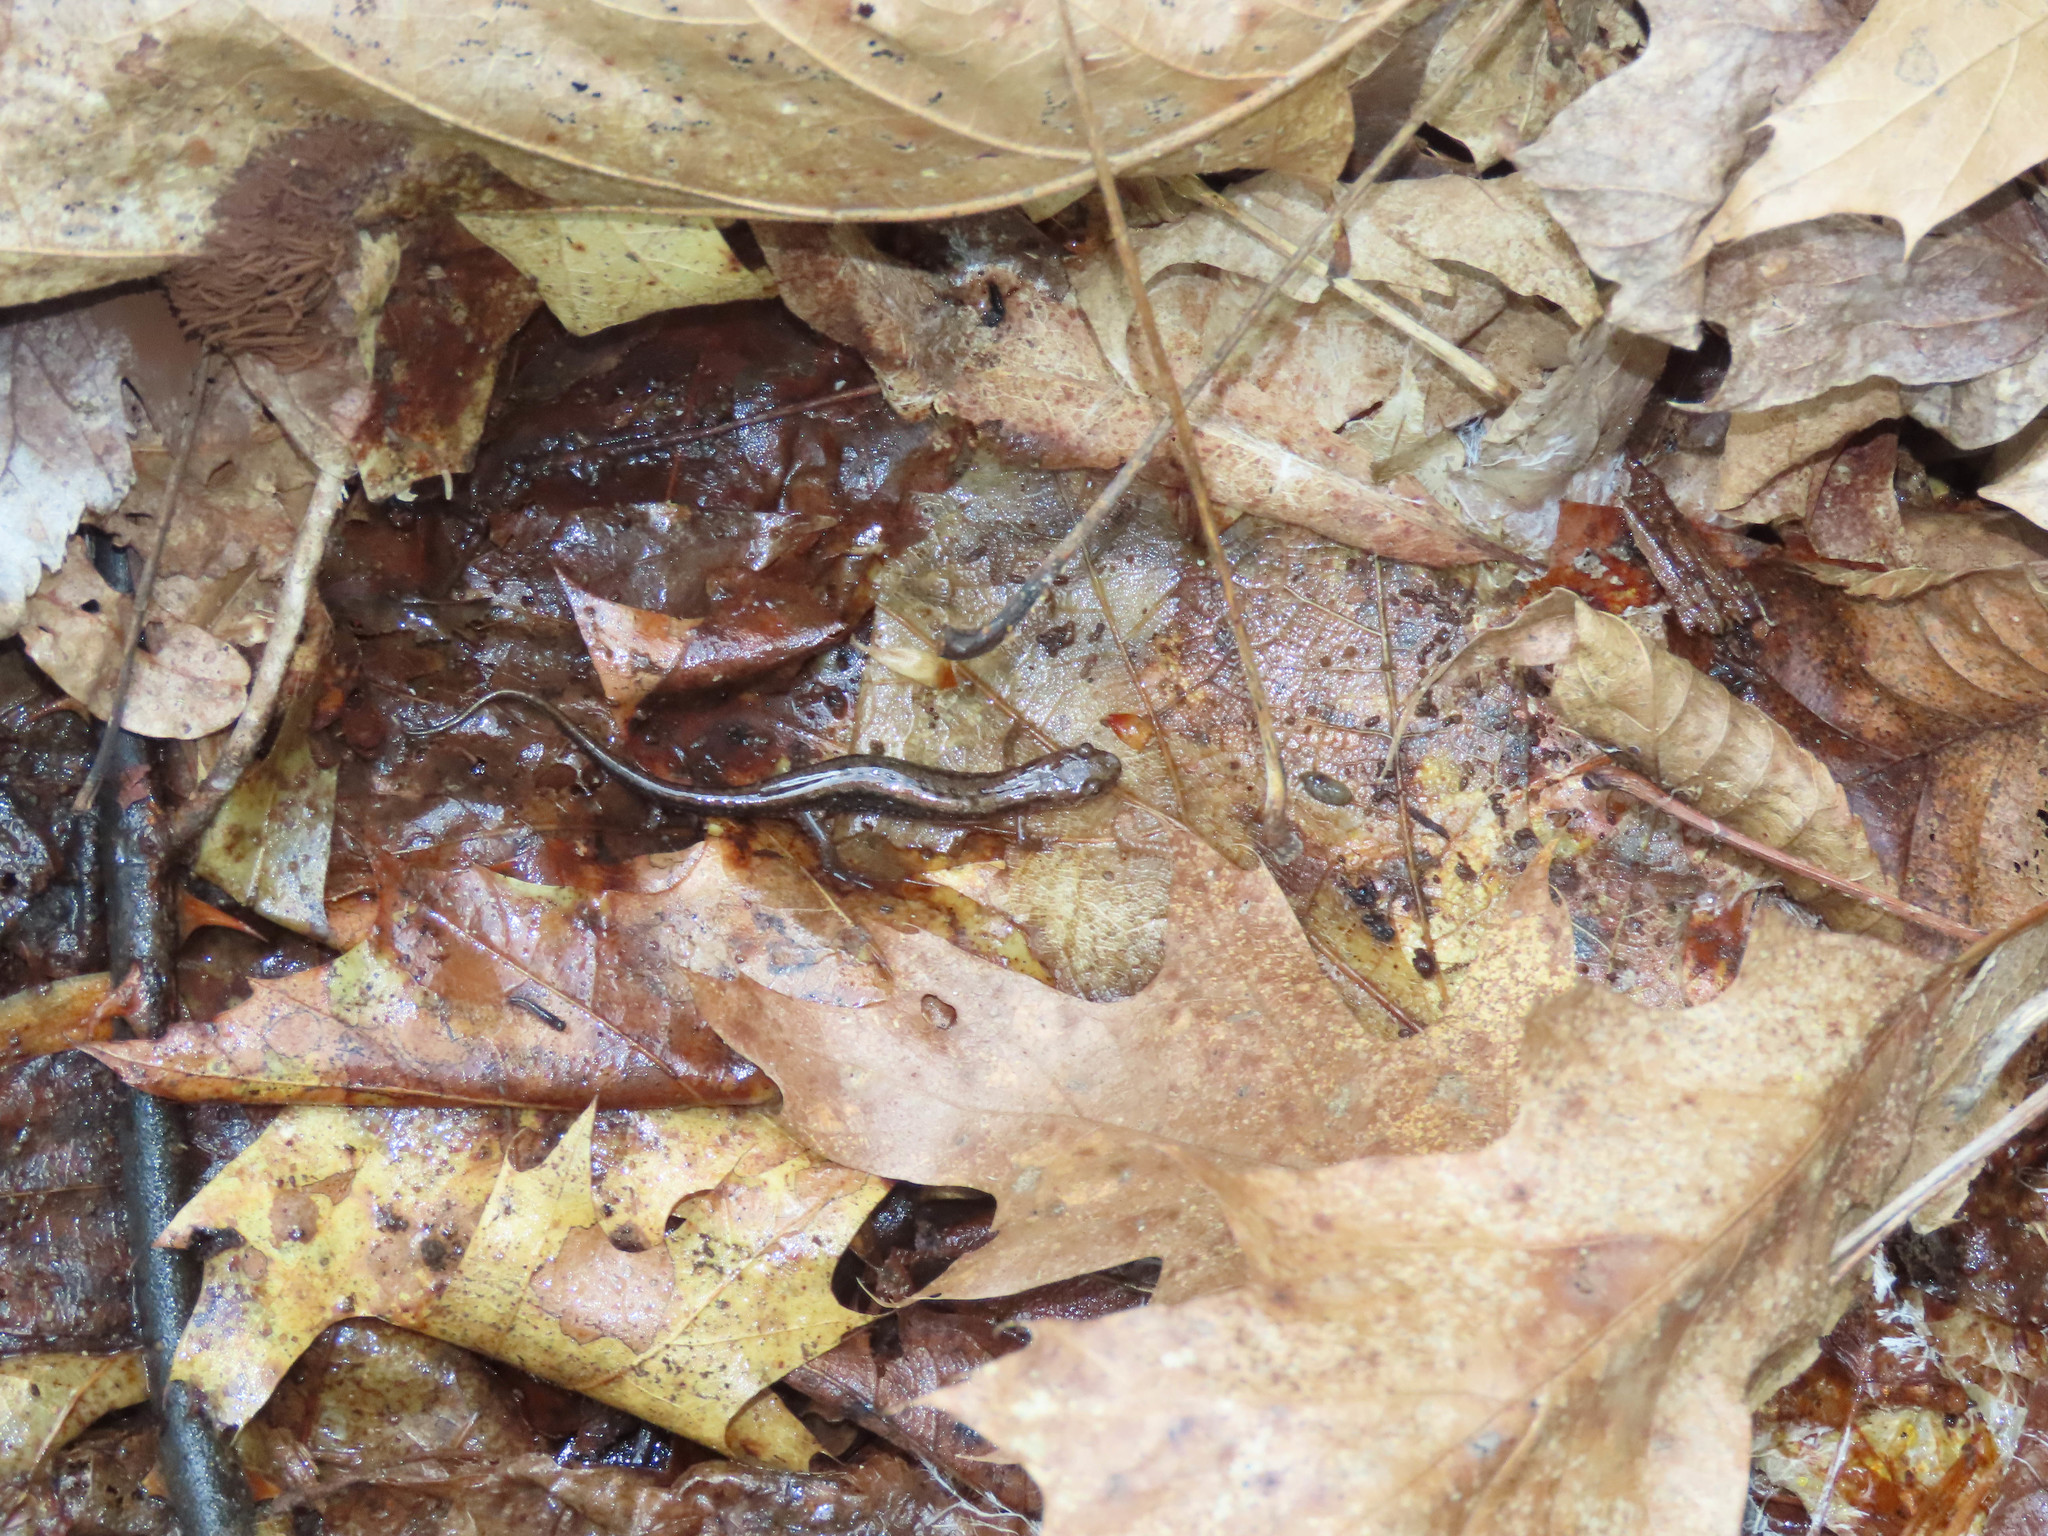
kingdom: Animalia
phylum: Chordata
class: Amphibia
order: Caudata
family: Plethodontidae
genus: Desmognathus
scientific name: Desmognathus ochrophaeus
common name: Allegheny mountain dusky salamander
